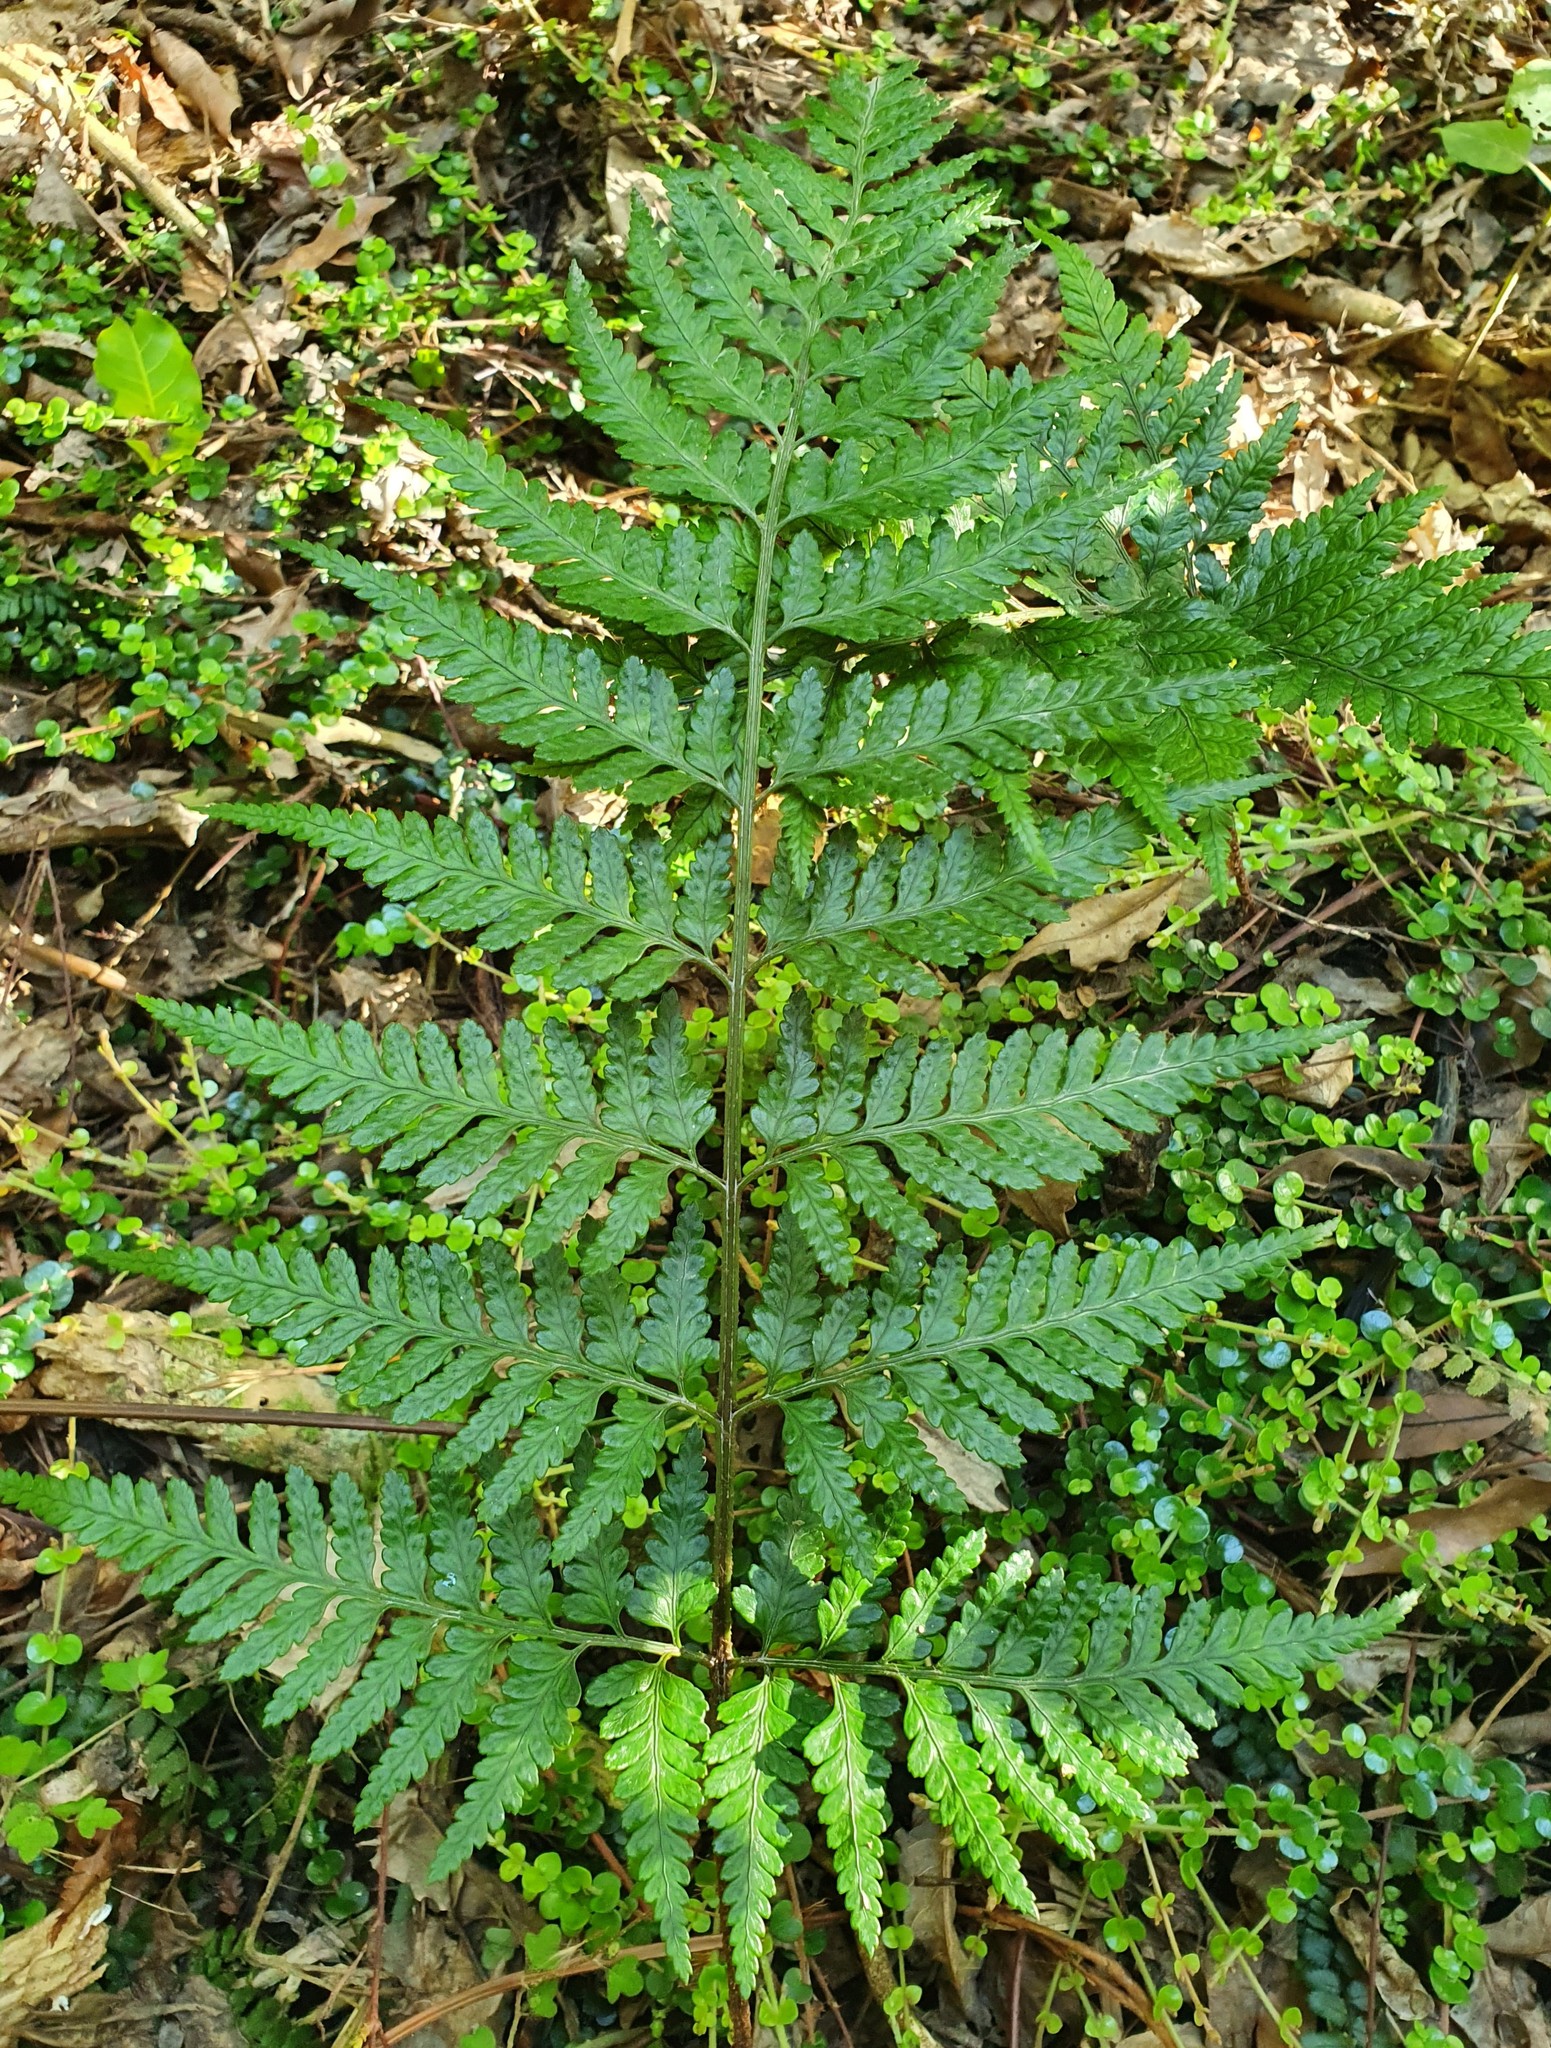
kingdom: Plantae
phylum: Tracheophyta
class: Polypodiopsida
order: Polypodiales
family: Dryopteridaceae
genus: Rumohra
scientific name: Rumohra adiantiformis
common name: Leather fern
